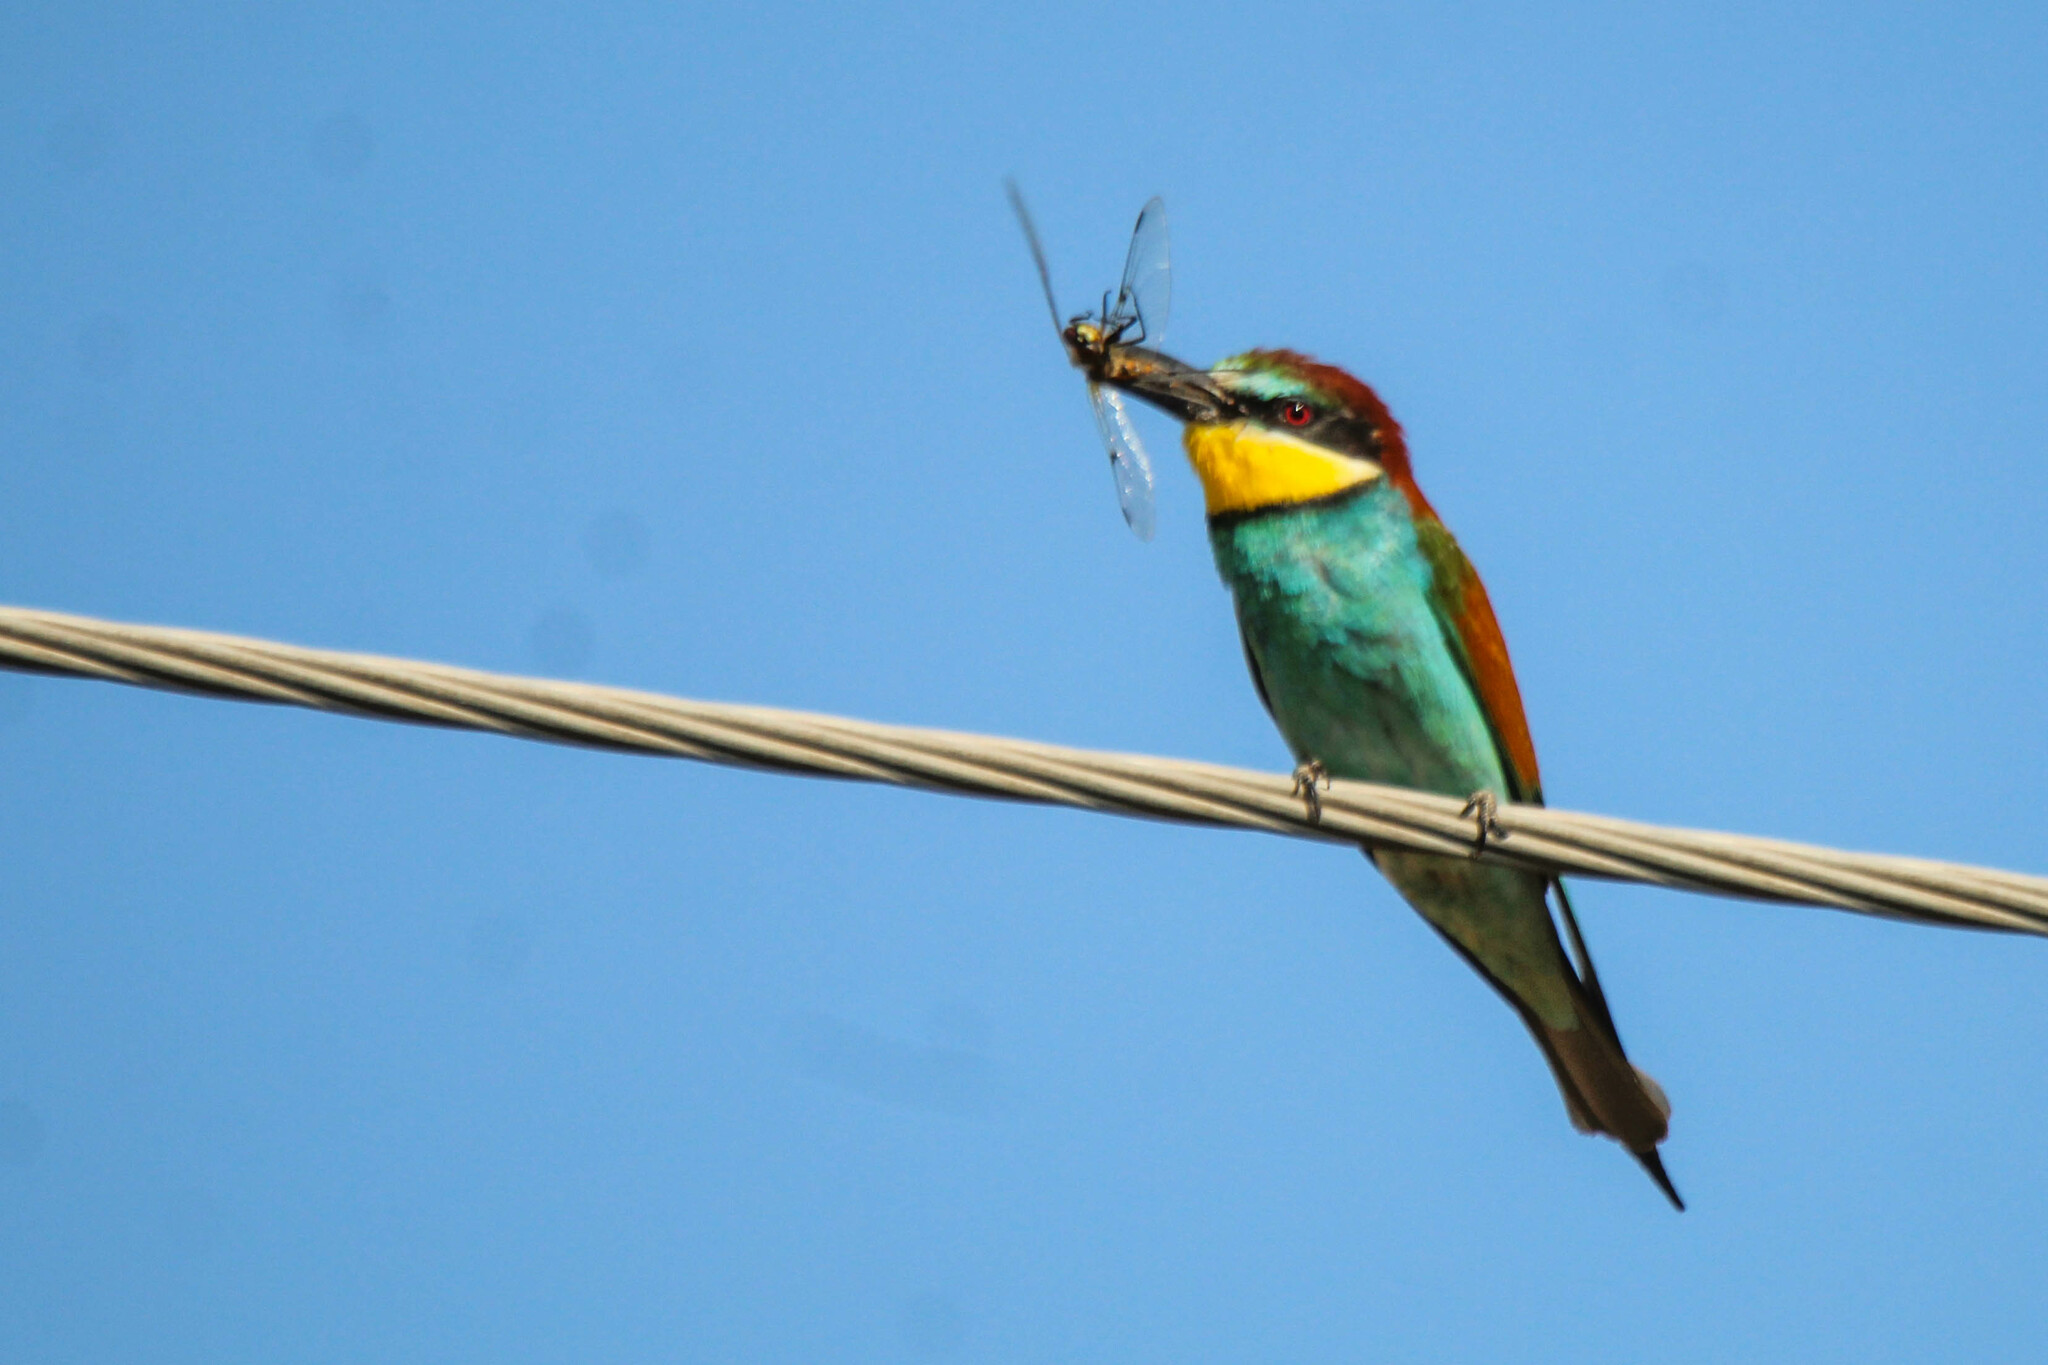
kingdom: Animalia
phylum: Chordata
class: Aves
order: Coraciiformes
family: Meropidae
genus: Merops
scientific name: Merops apiaster
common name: European bee-eater
